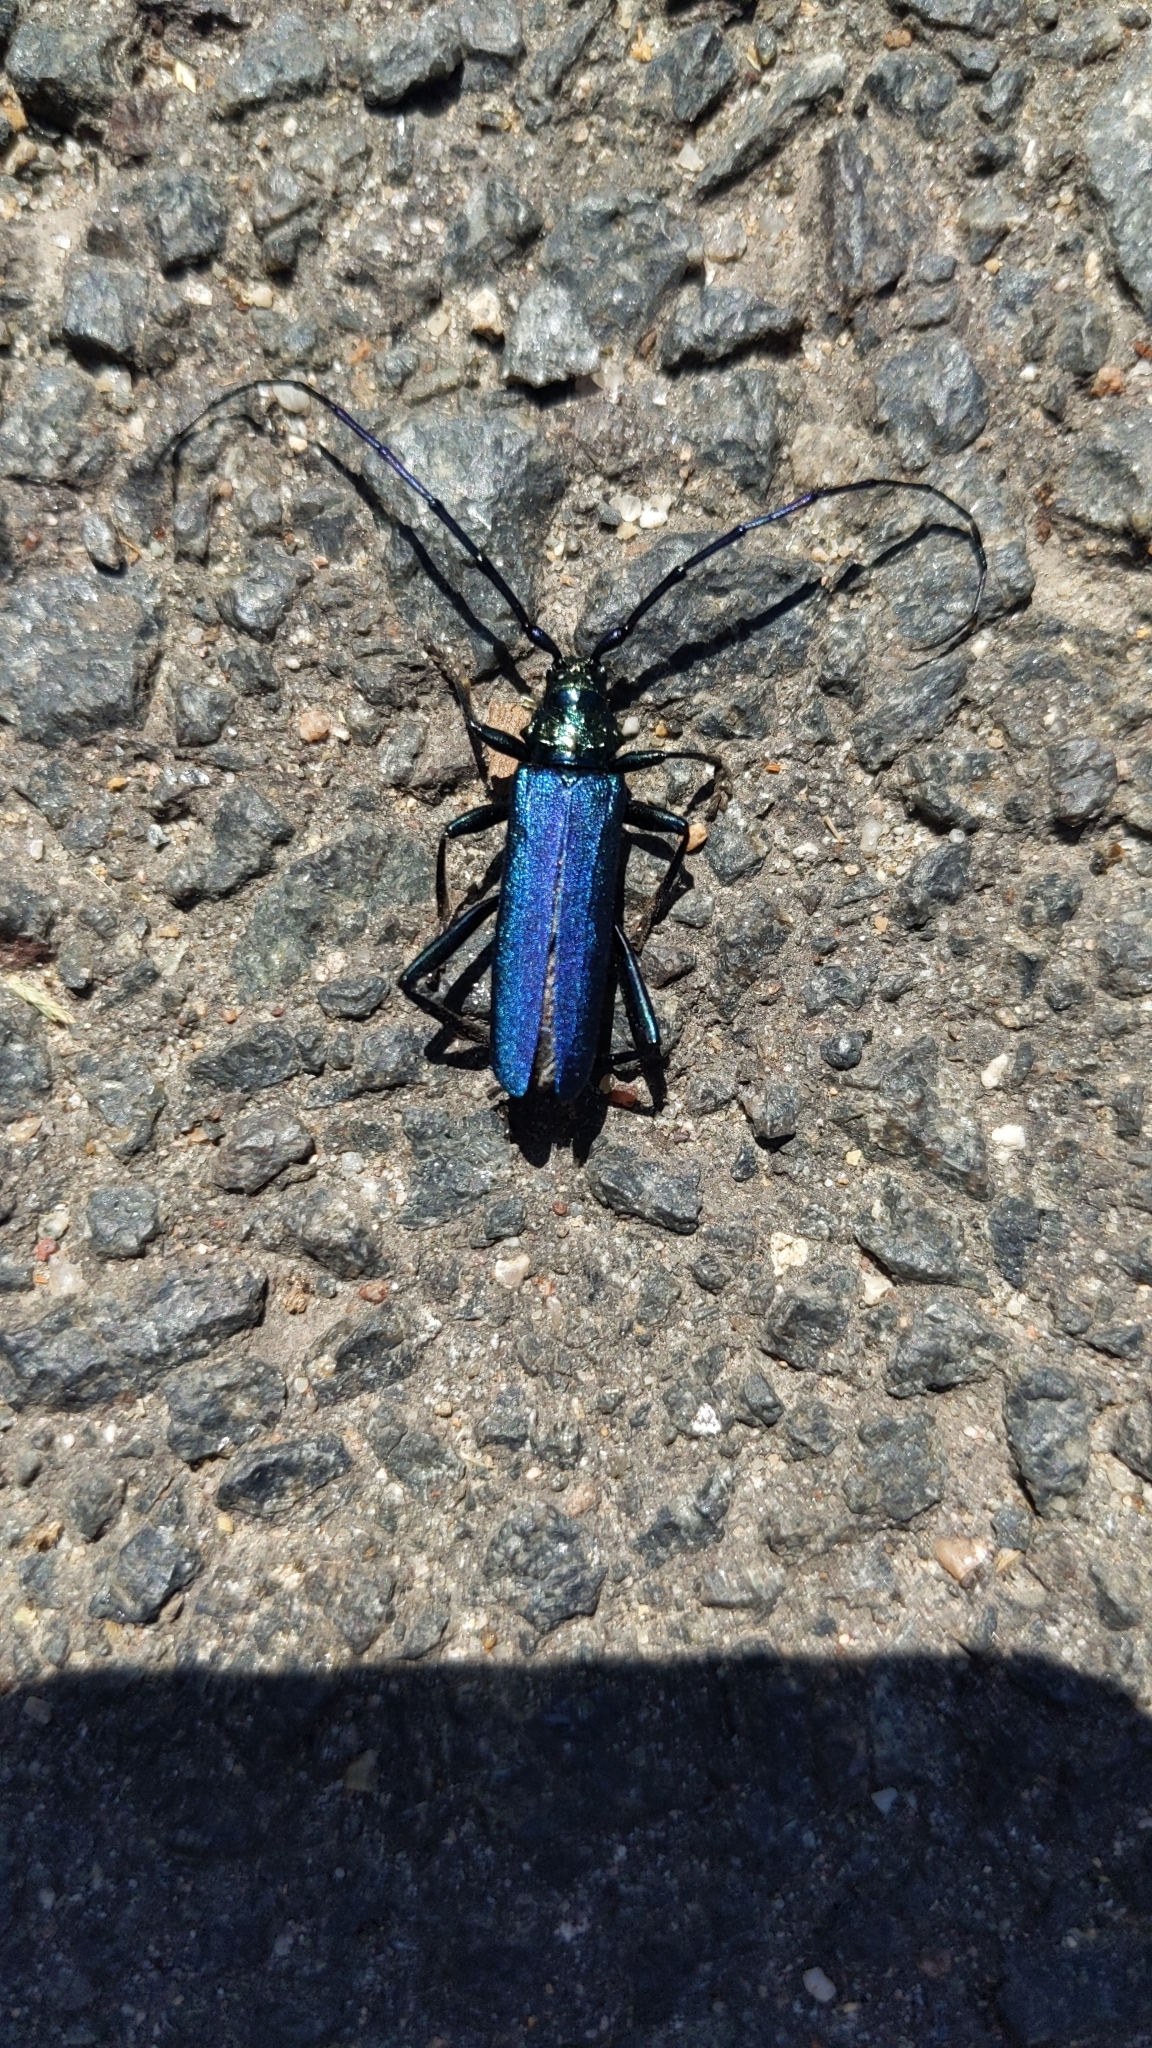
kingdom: Animalia
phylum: Arthropoda
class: Insecta
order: Coleoptera
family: Cerambycidae
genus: Aromia
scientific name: Aromia moschata
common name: Musk beetle
